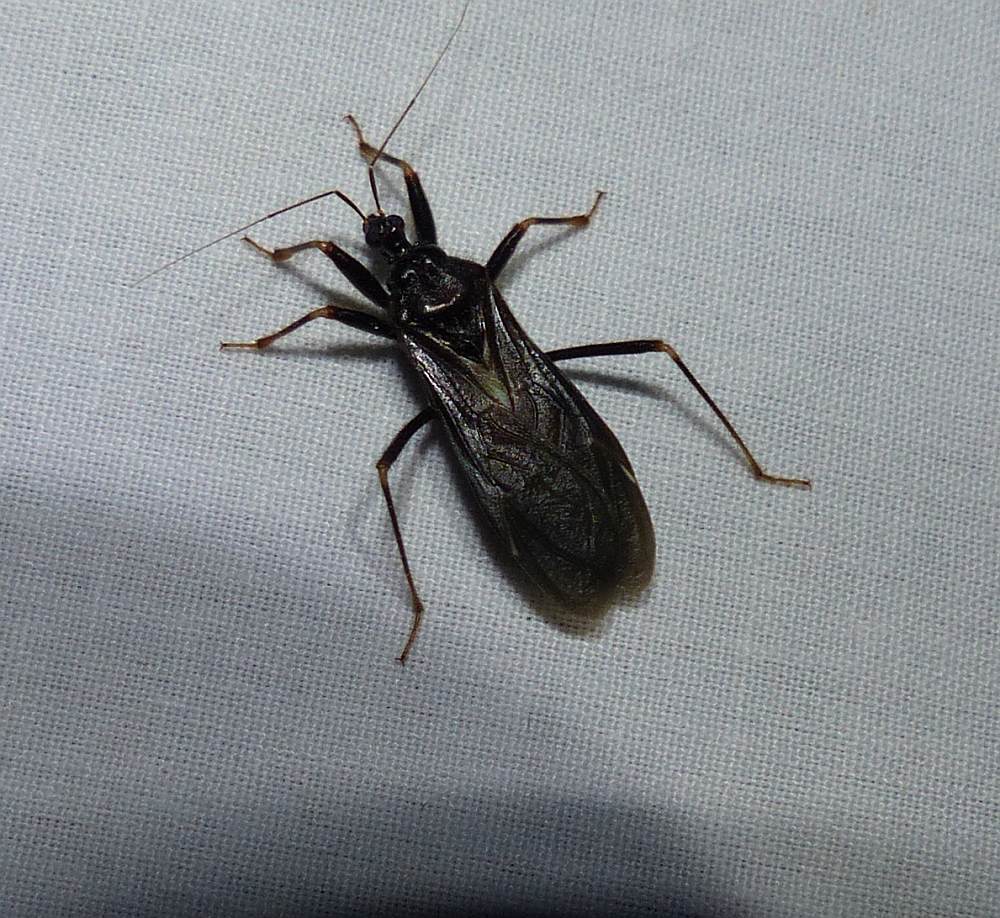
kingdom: Animalia
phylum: Arthropoda
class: Insecta
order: Hemiptera
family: Reduviidae
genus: Reduvius
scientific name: Reduvius personatus
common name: Masked hunter
